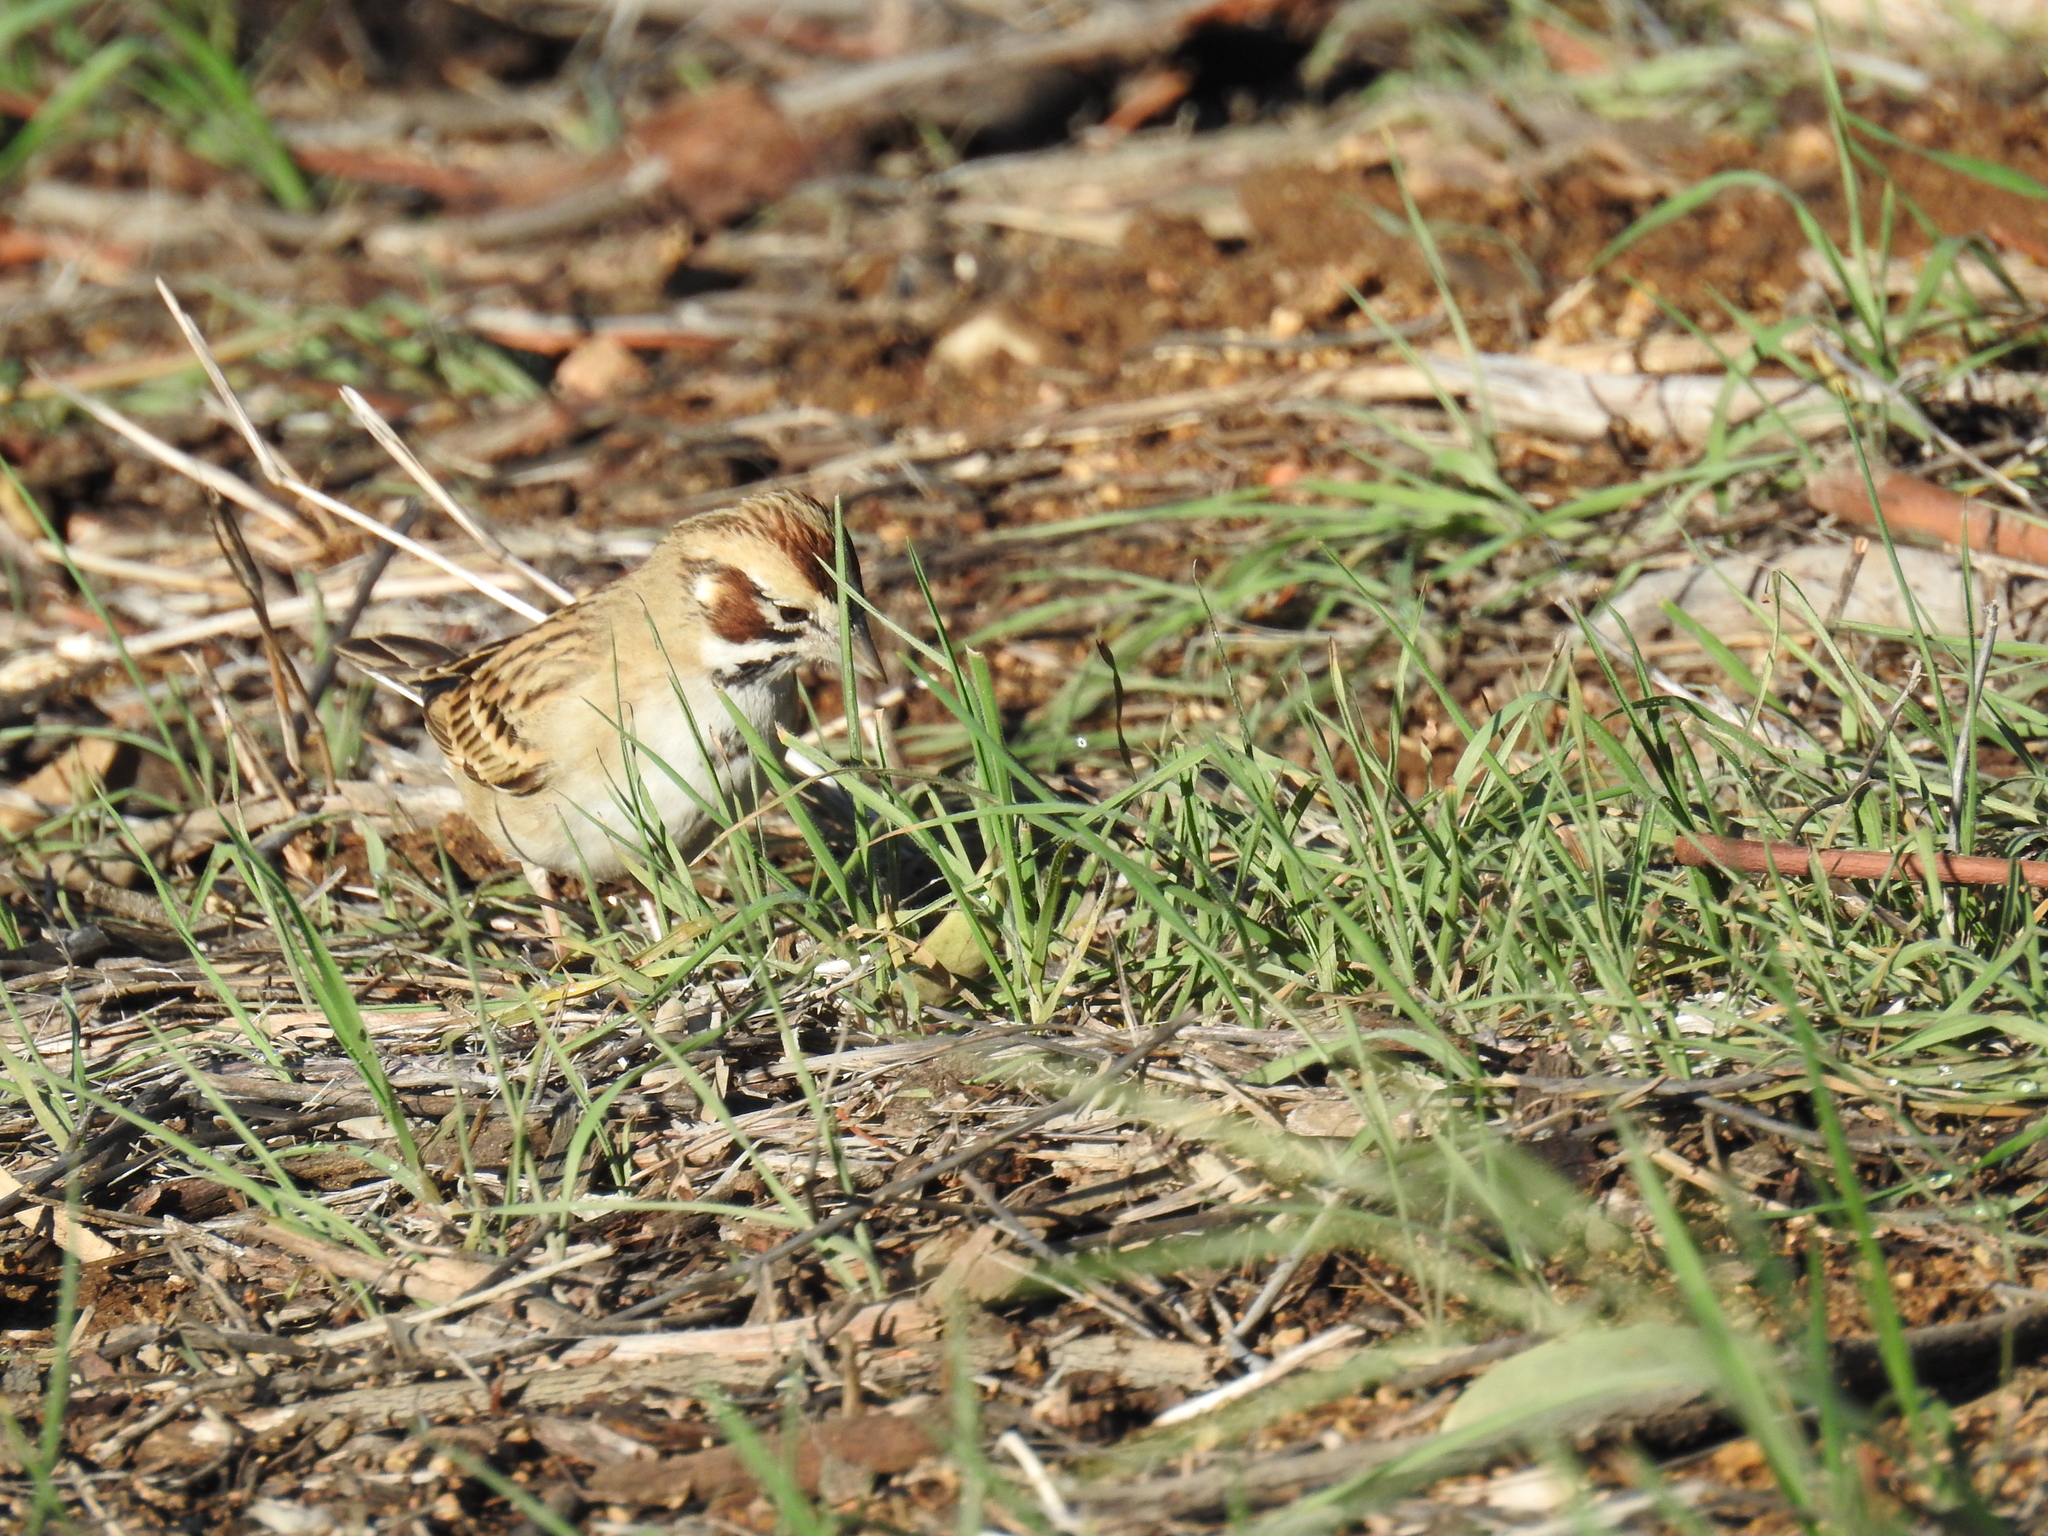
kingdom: Animalia
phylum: Chordata
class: Aves
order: Passeriformes
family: Passerellidae
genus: Chondestes
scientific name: Chondestes grammacus
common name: Lark sparrow
